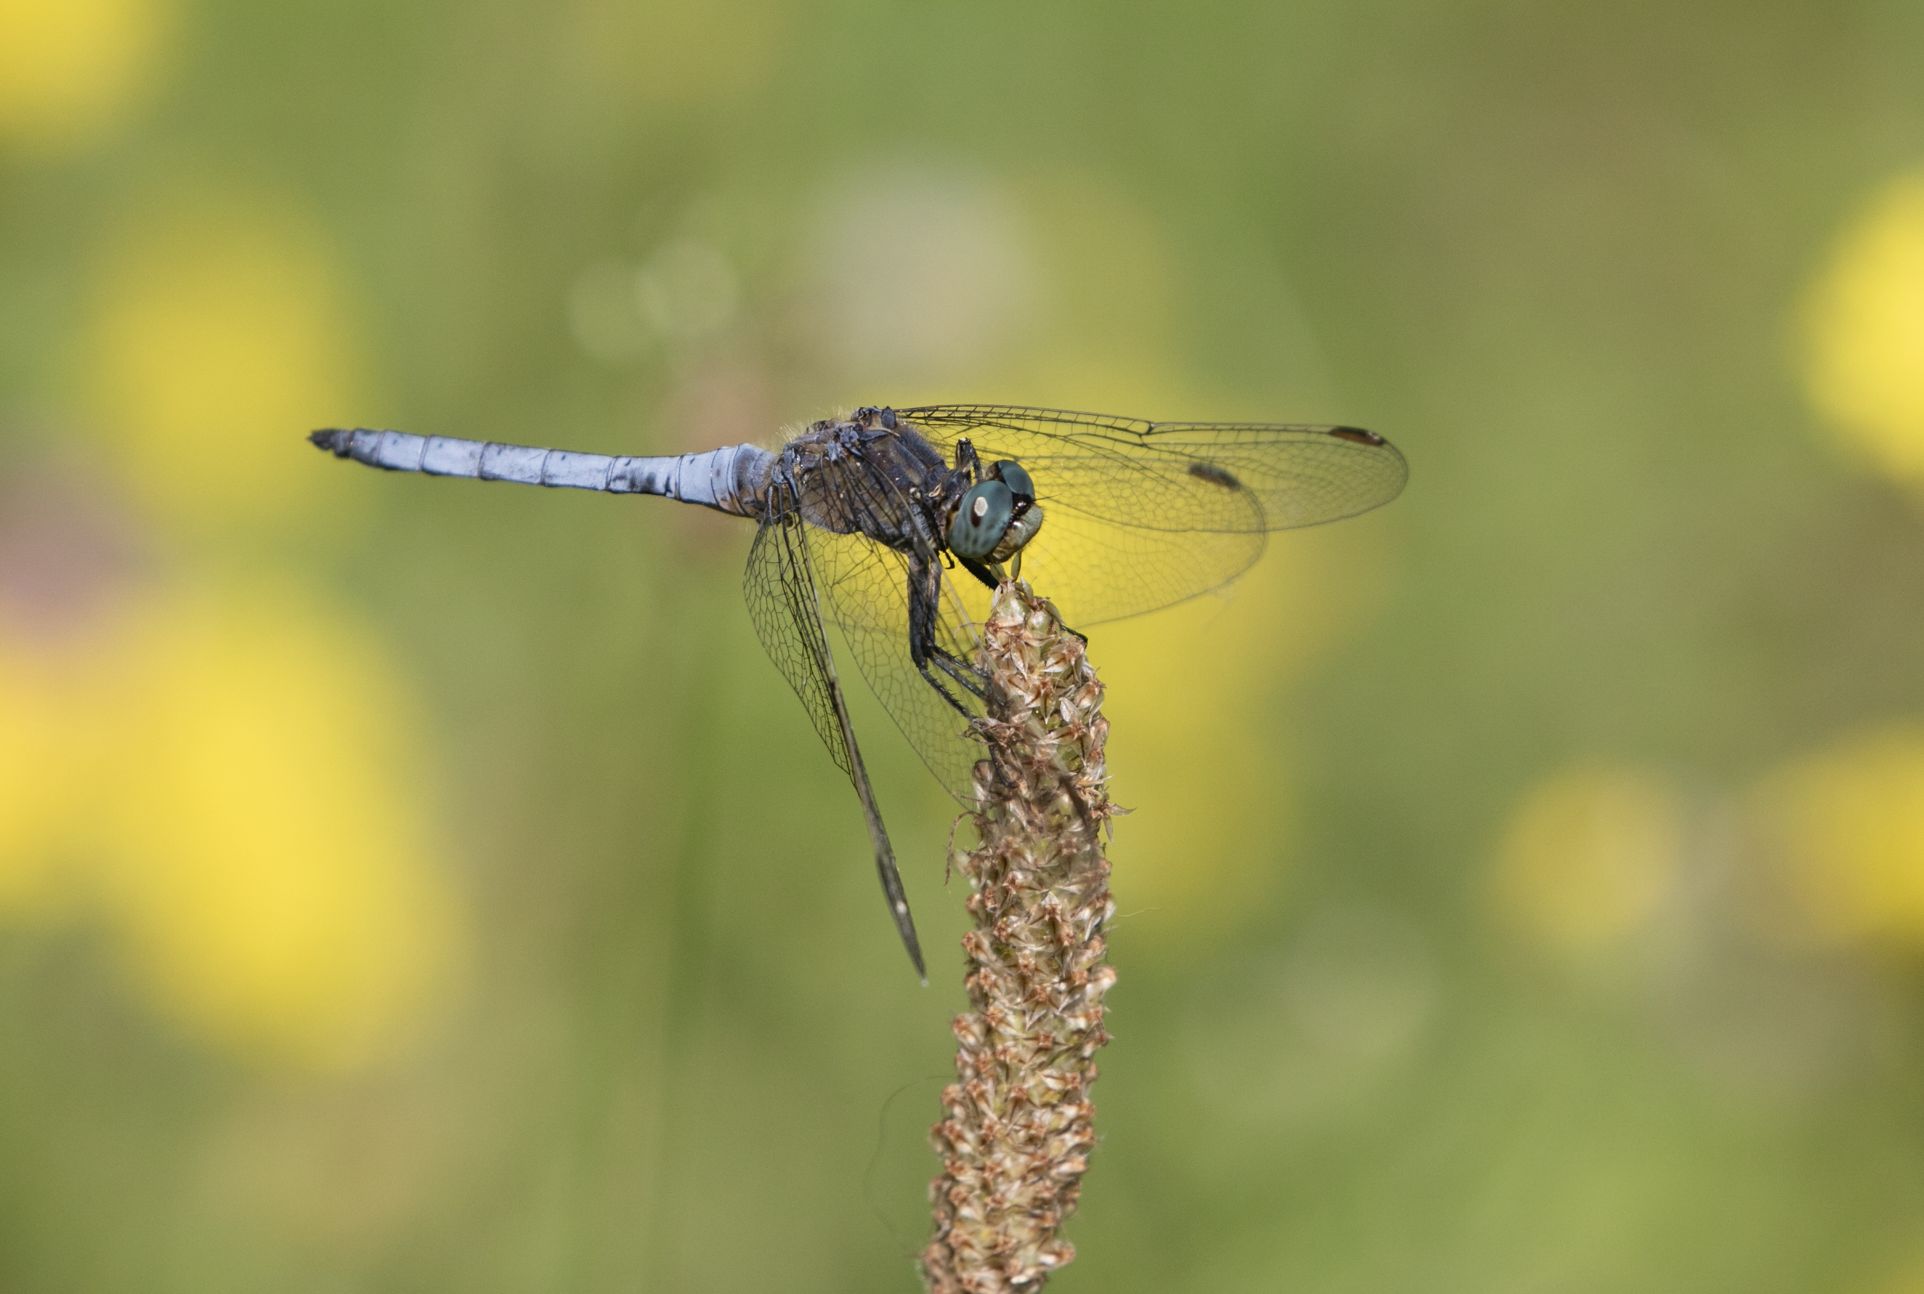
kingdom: Animalia
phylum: Arthropoda
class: Insecta
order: Odonata
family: Libellulidae
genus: Orthetrum
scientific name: Orthetrum coerulescens
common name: Keeled skimmer
